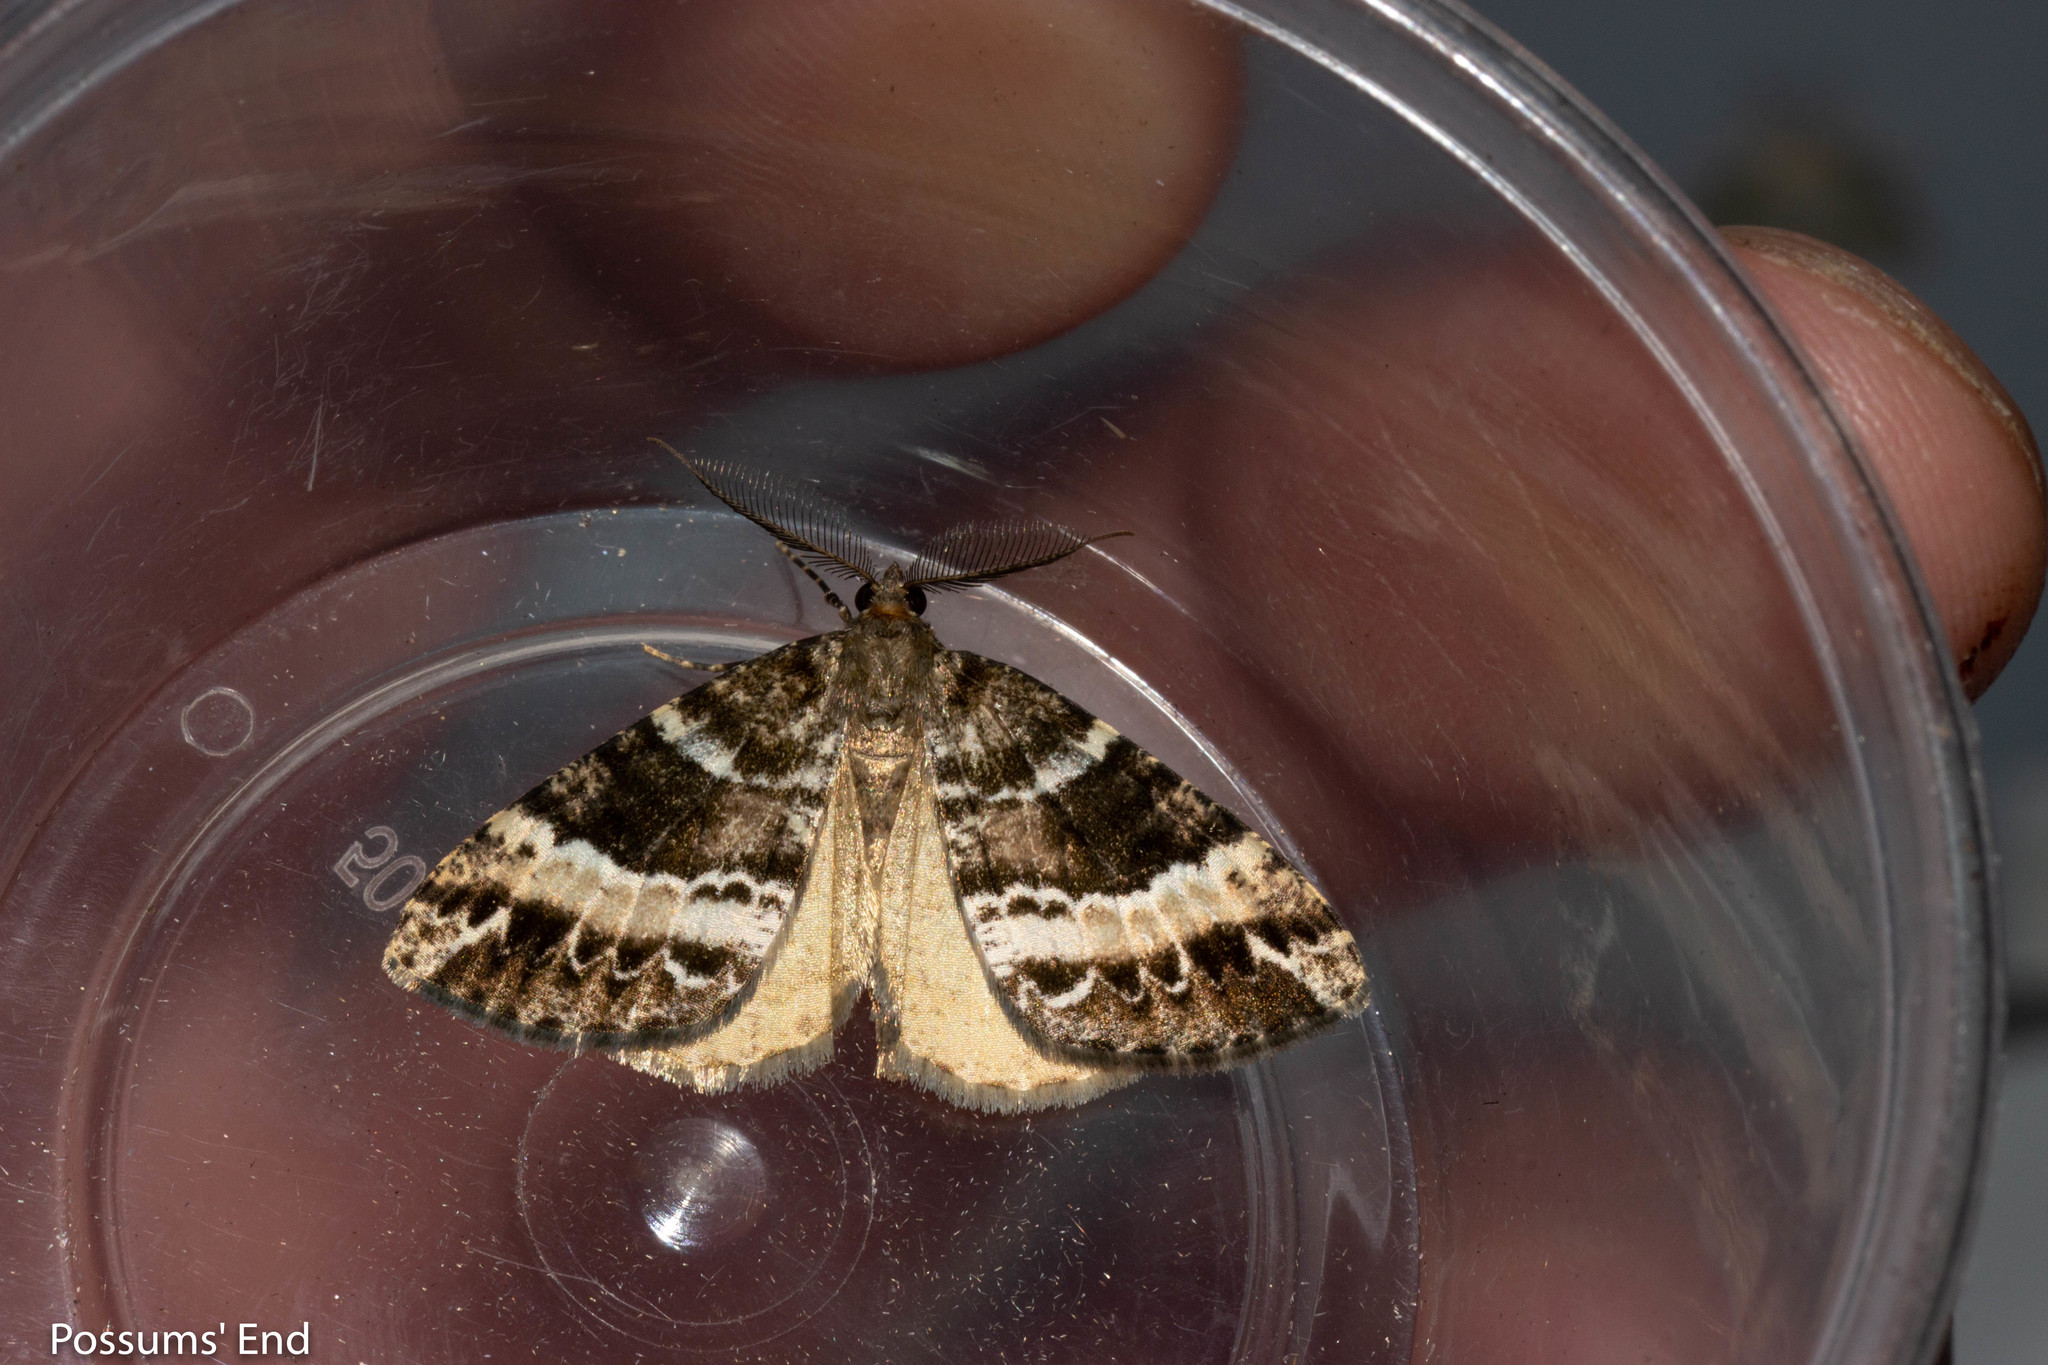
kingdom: Animalia
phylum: Arthropoda
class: Insecta
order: Lepidoptera
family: Geometridae
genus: Pseudocoremia
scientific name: Pseudocoremia
